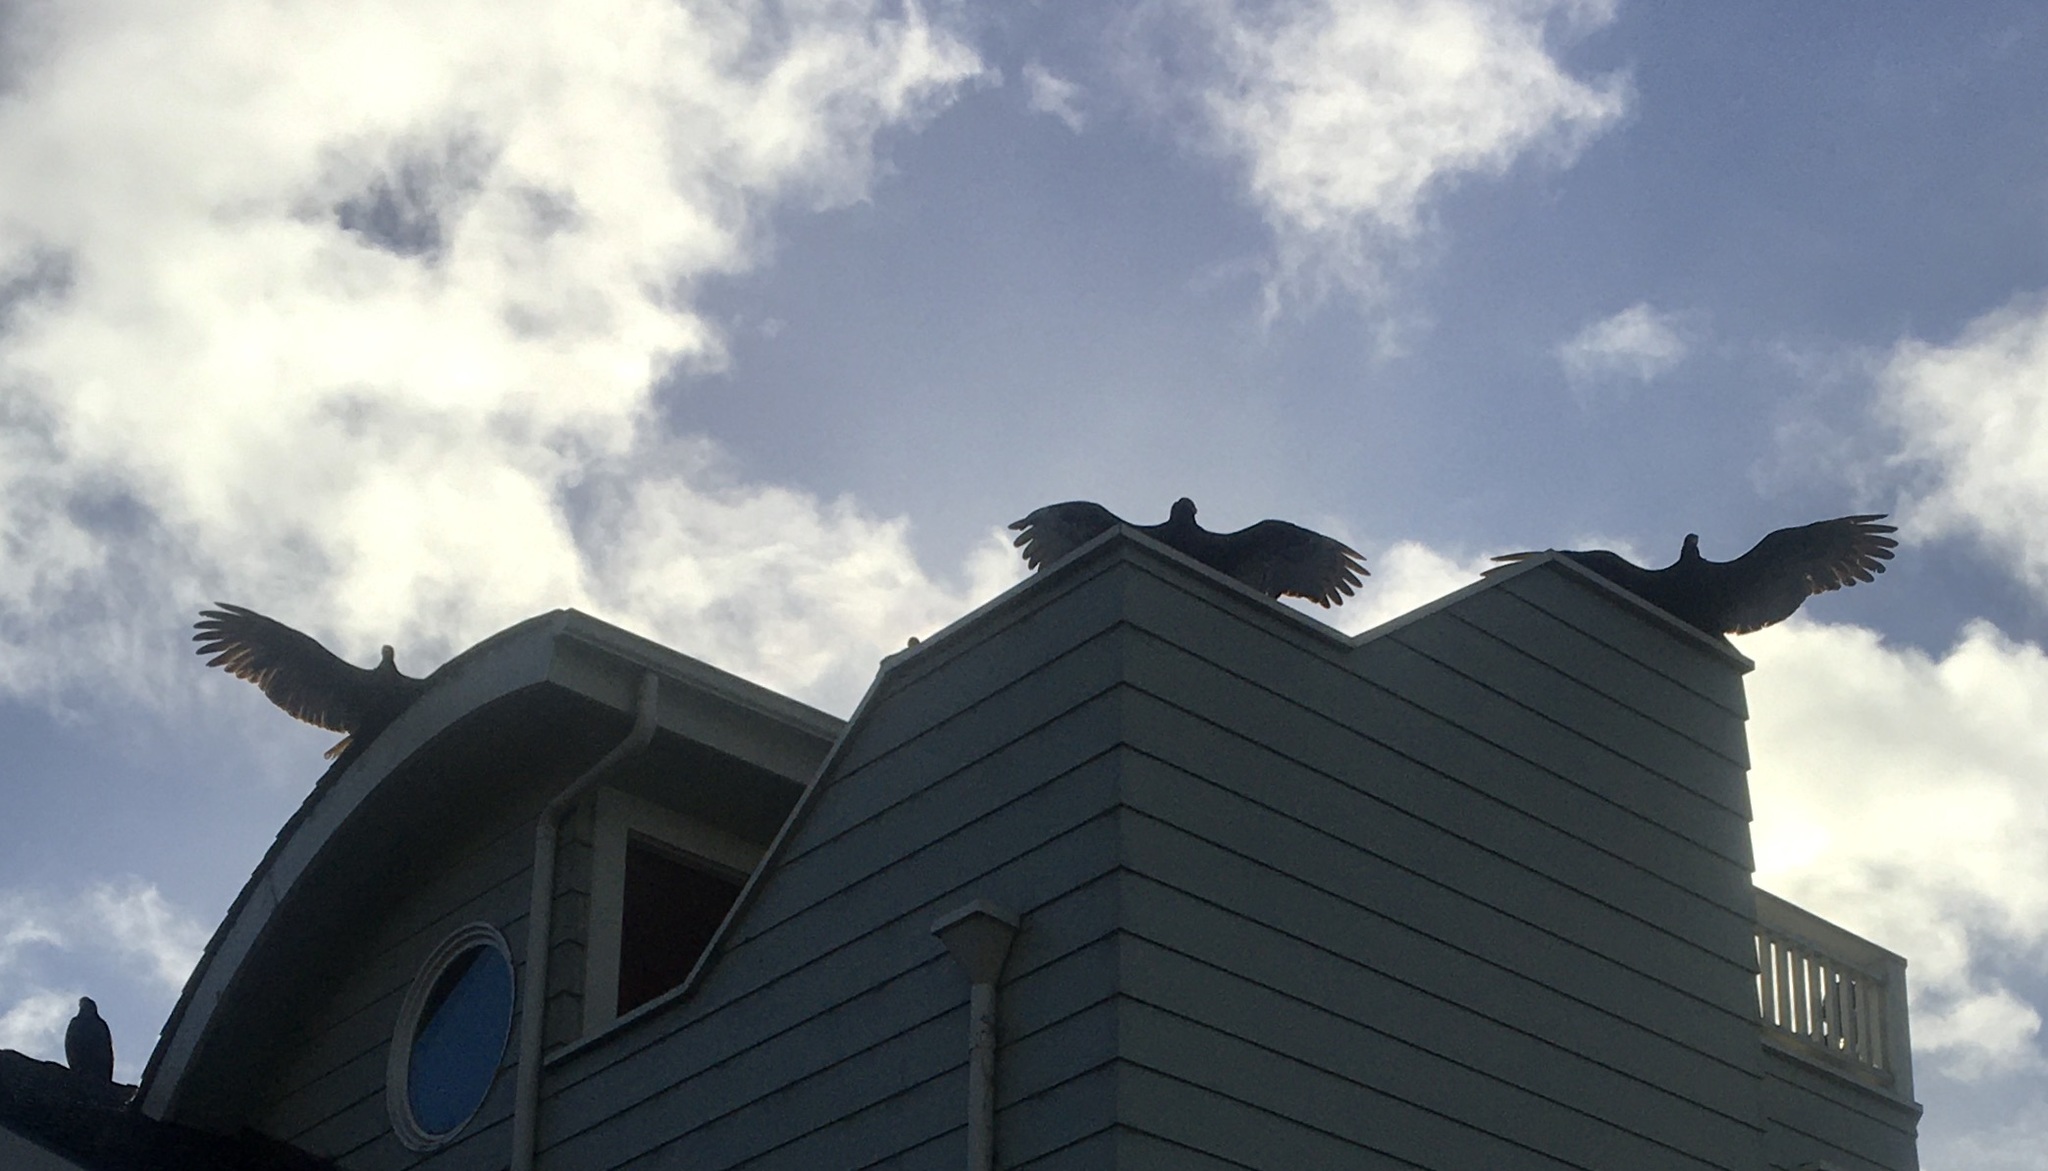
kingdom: Animalia
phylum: Chordata
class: Aves
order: Accipitriformes
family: Cathartidae
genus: Cathartes
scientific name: Cathartes aura
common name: Turkey vulture
